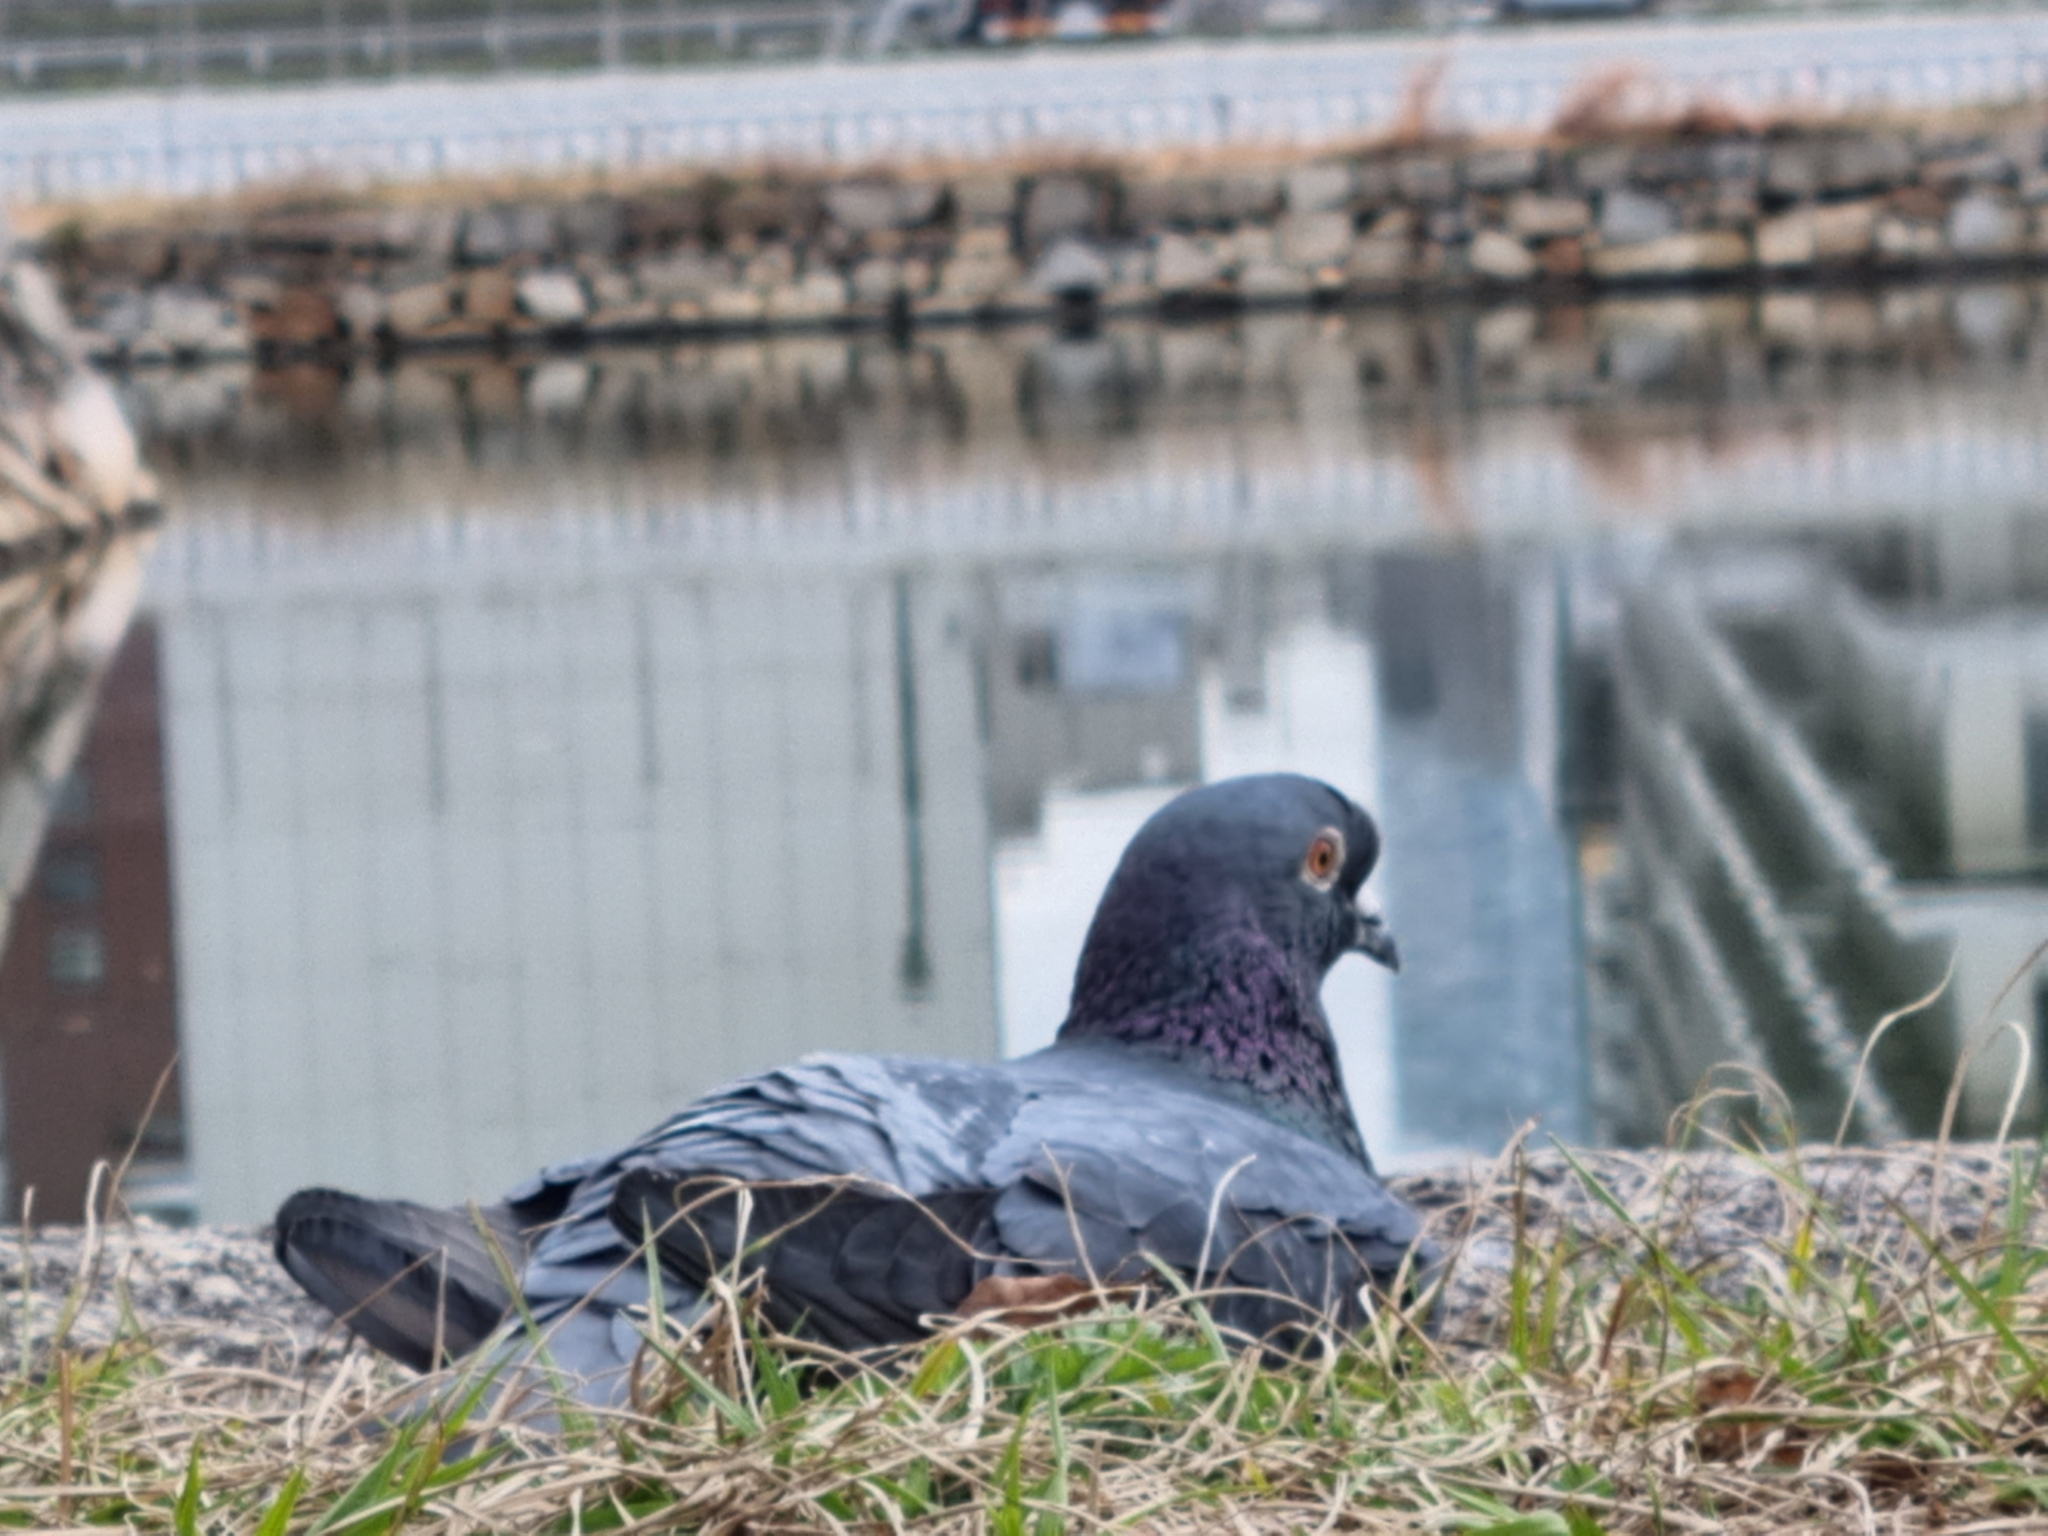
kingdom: Animalia
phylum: Chordata
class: Aves
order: Columbiformes
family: Columbidae
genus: Columba
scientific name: Columba livia
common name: Rock pigeon
